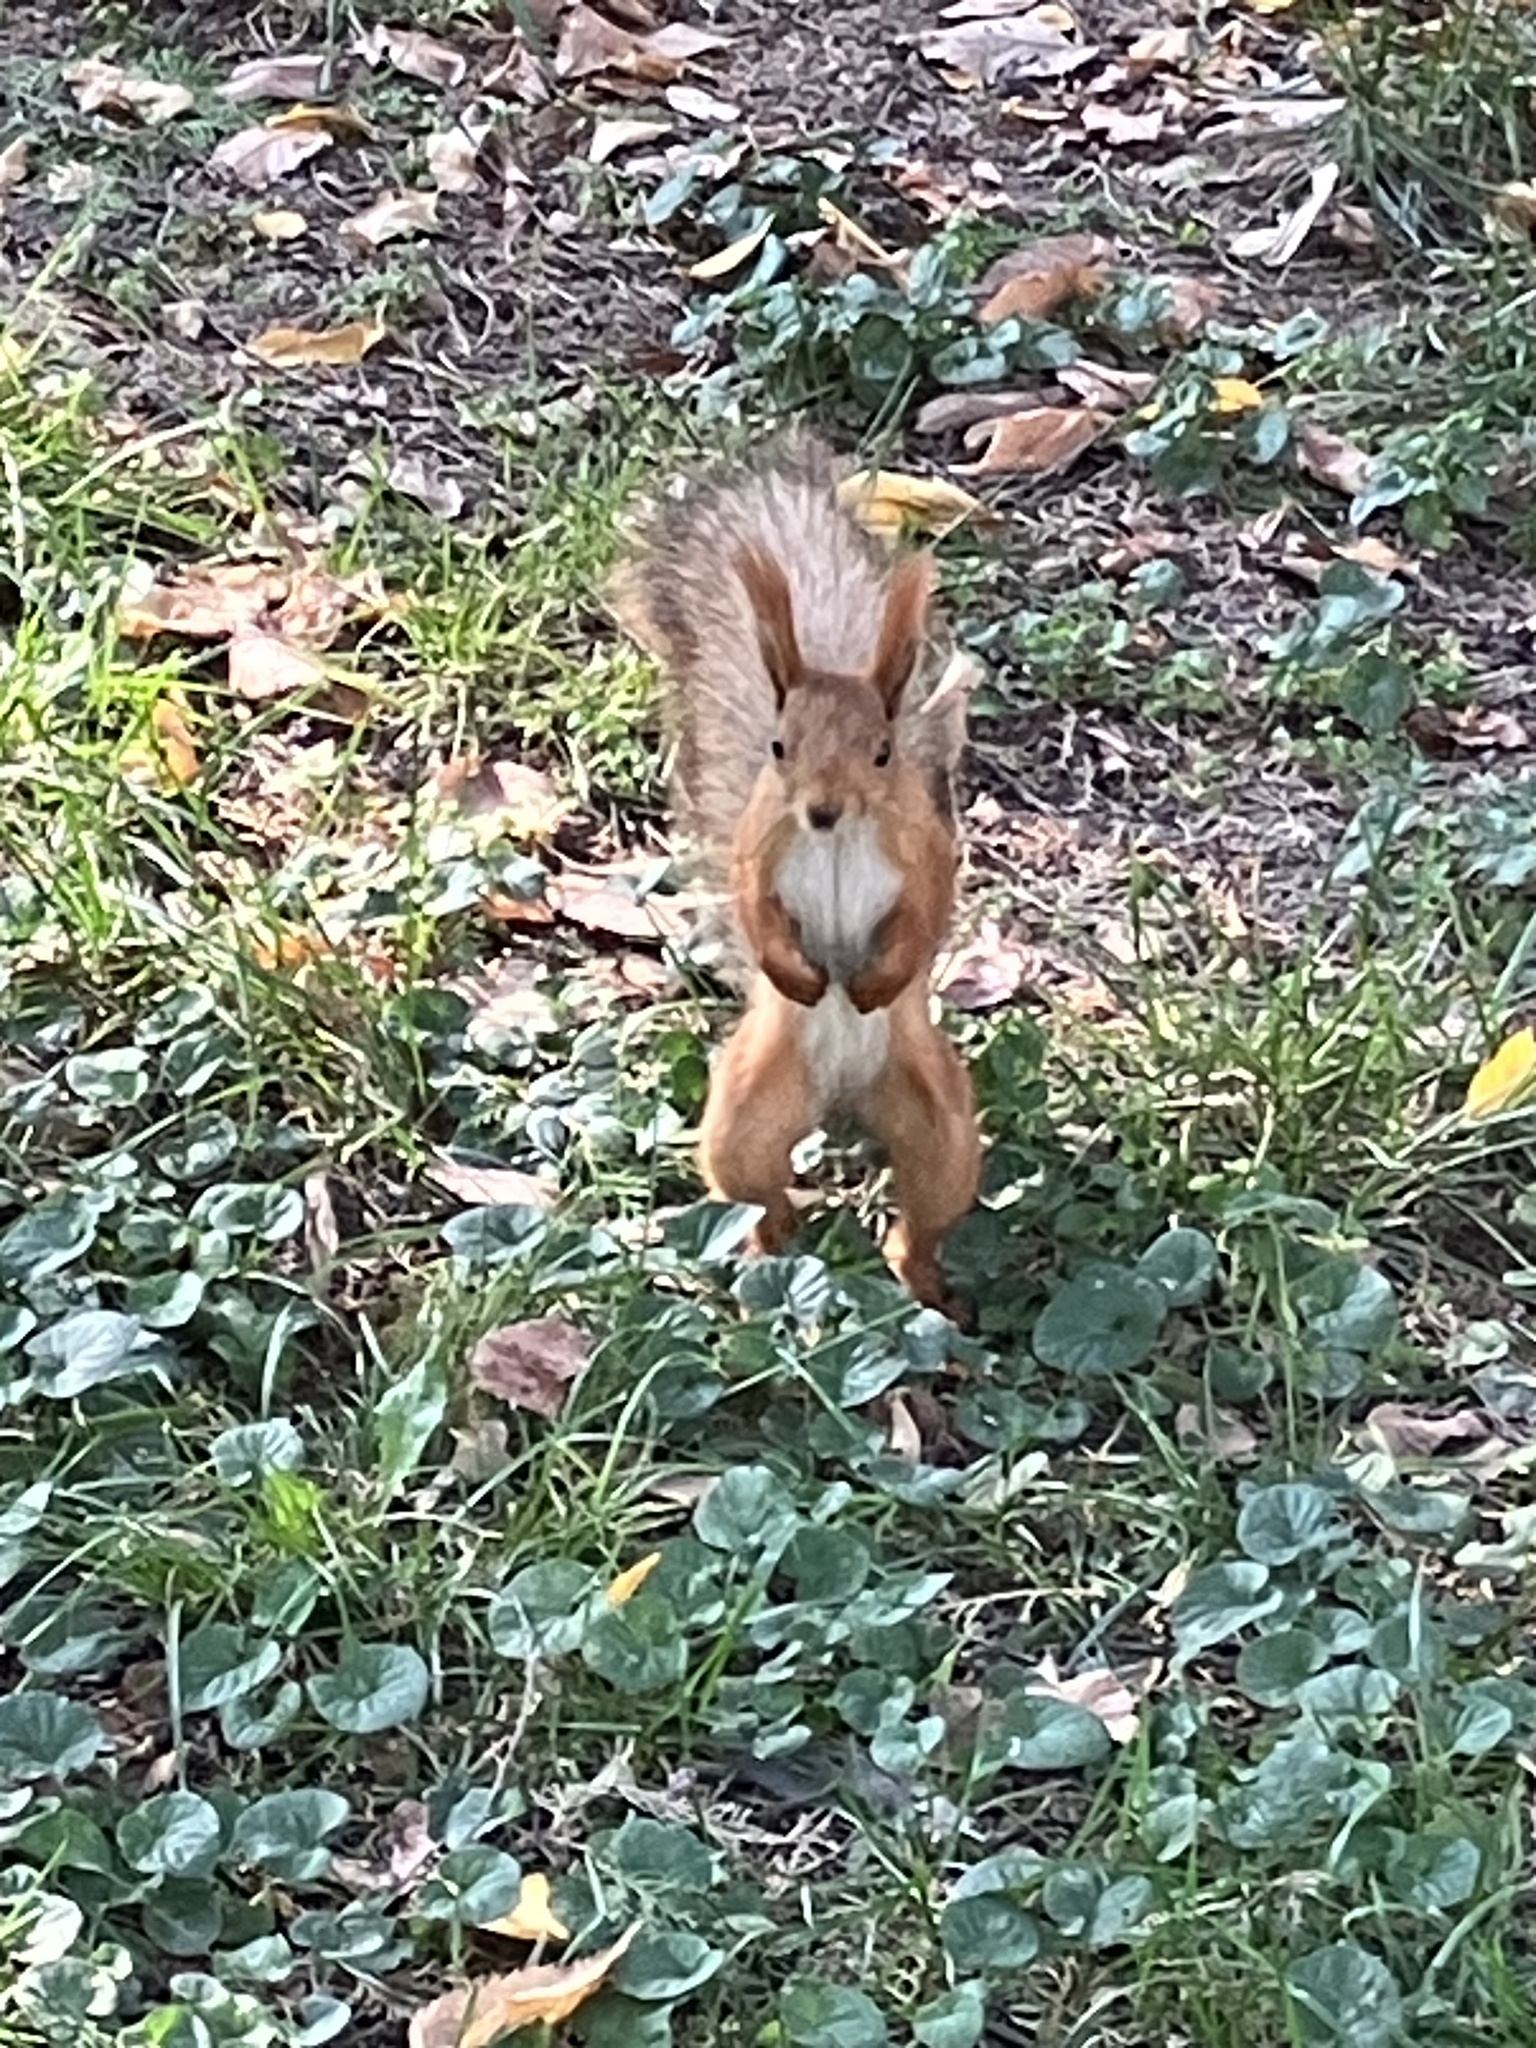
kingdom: Animalia
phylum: Chordata
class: Mammalia
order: Rodentia
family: Sciuridae
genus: Sciurus
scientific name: Sciurus vulgaris
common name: Eurasian red squirrel
